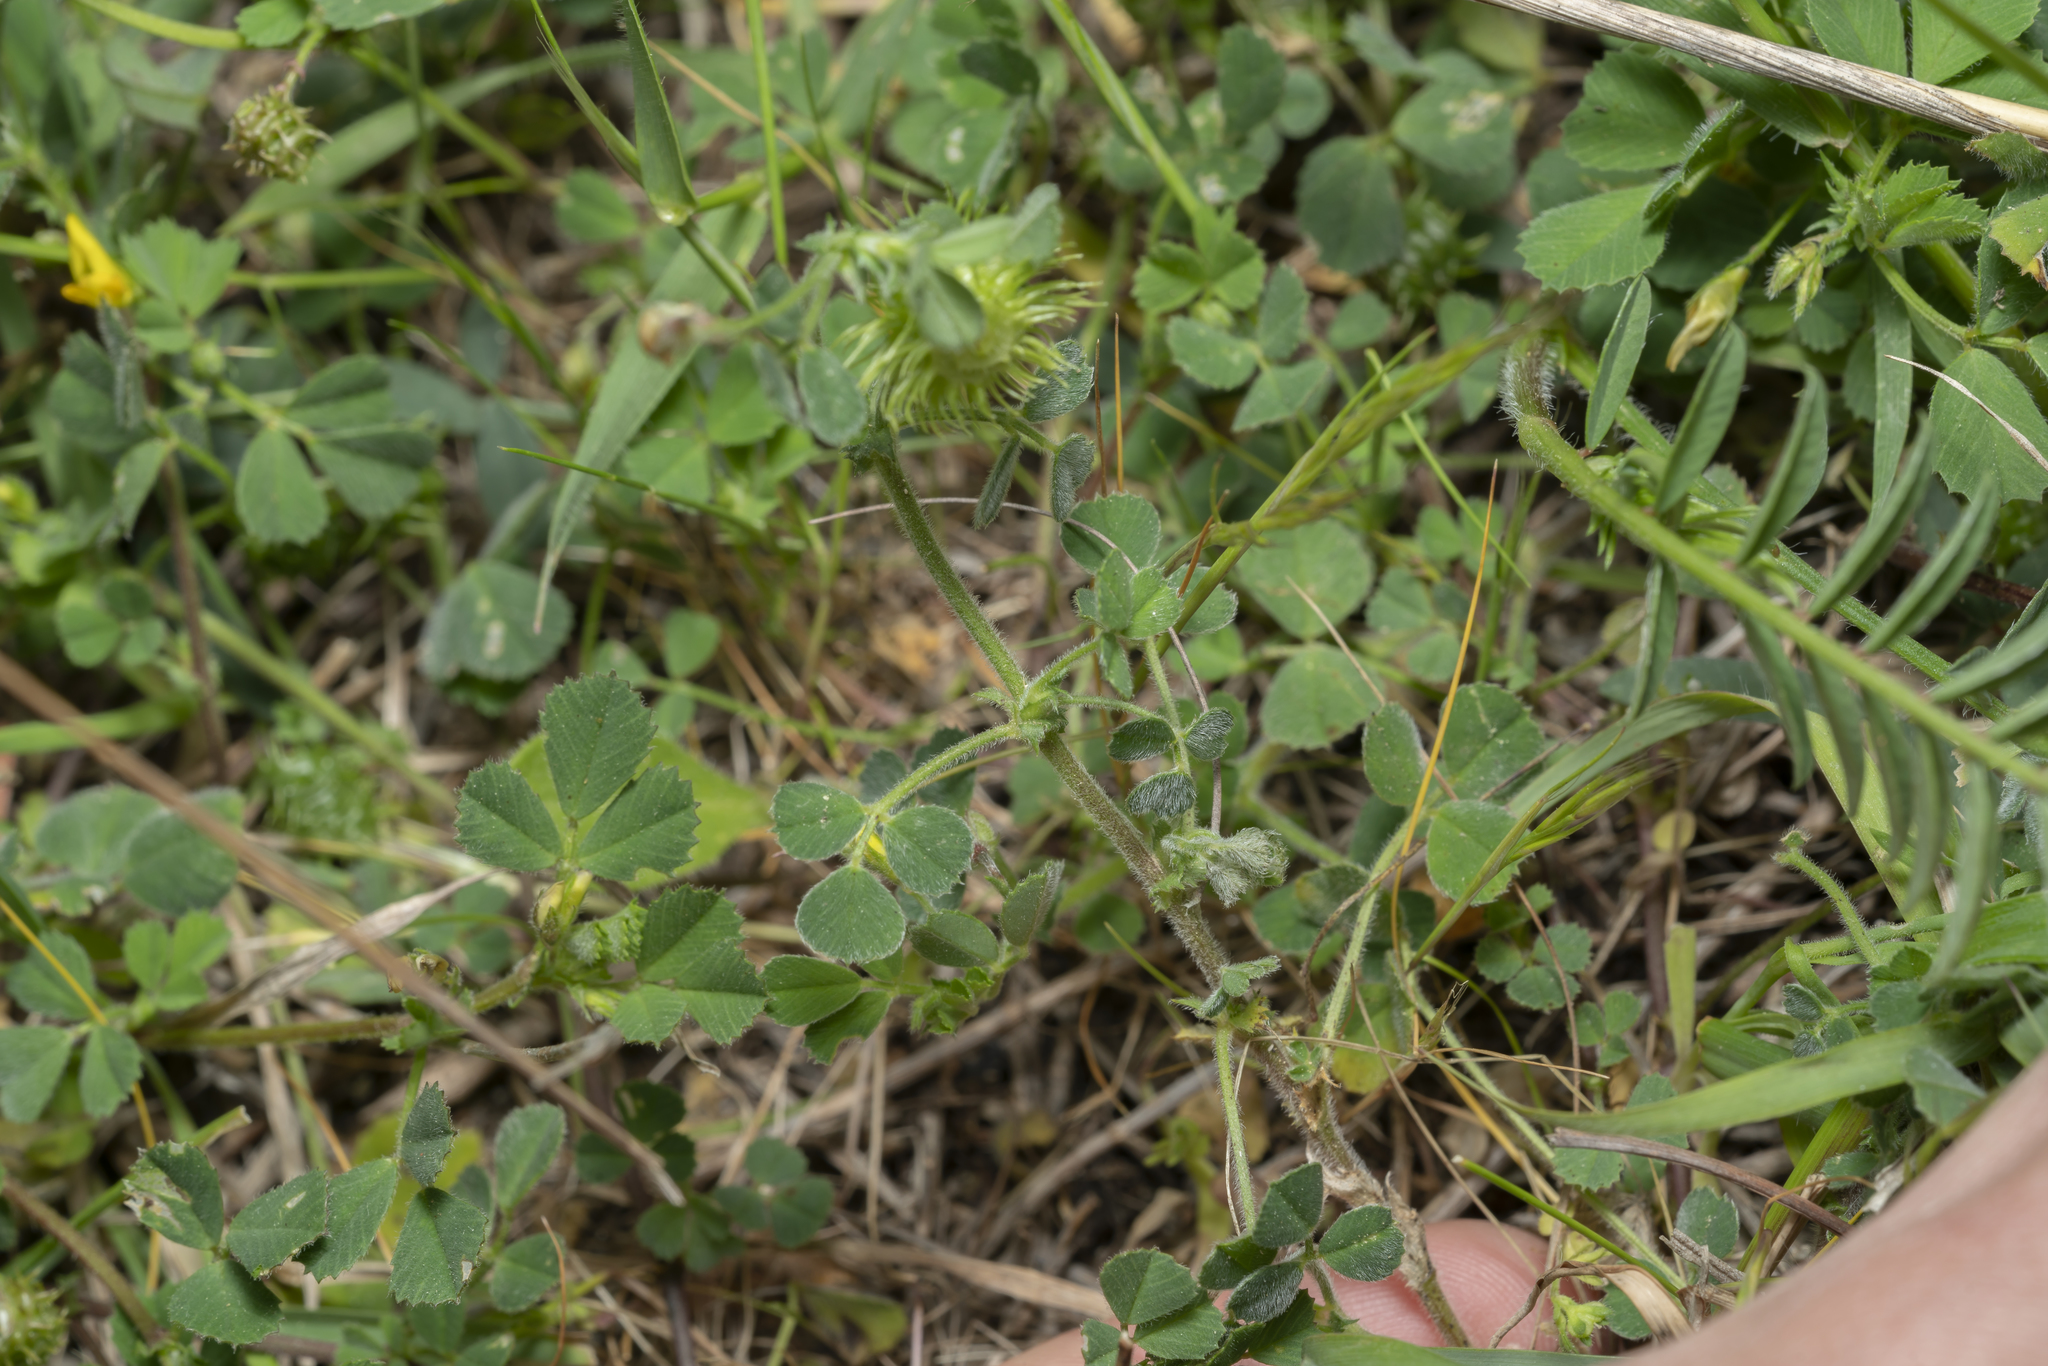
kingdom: Plantae
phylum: Tracheophyta
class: Magnoliopsida
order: Fabales
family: Fabaceae
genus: Medicago
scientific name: Medicago disciformis
